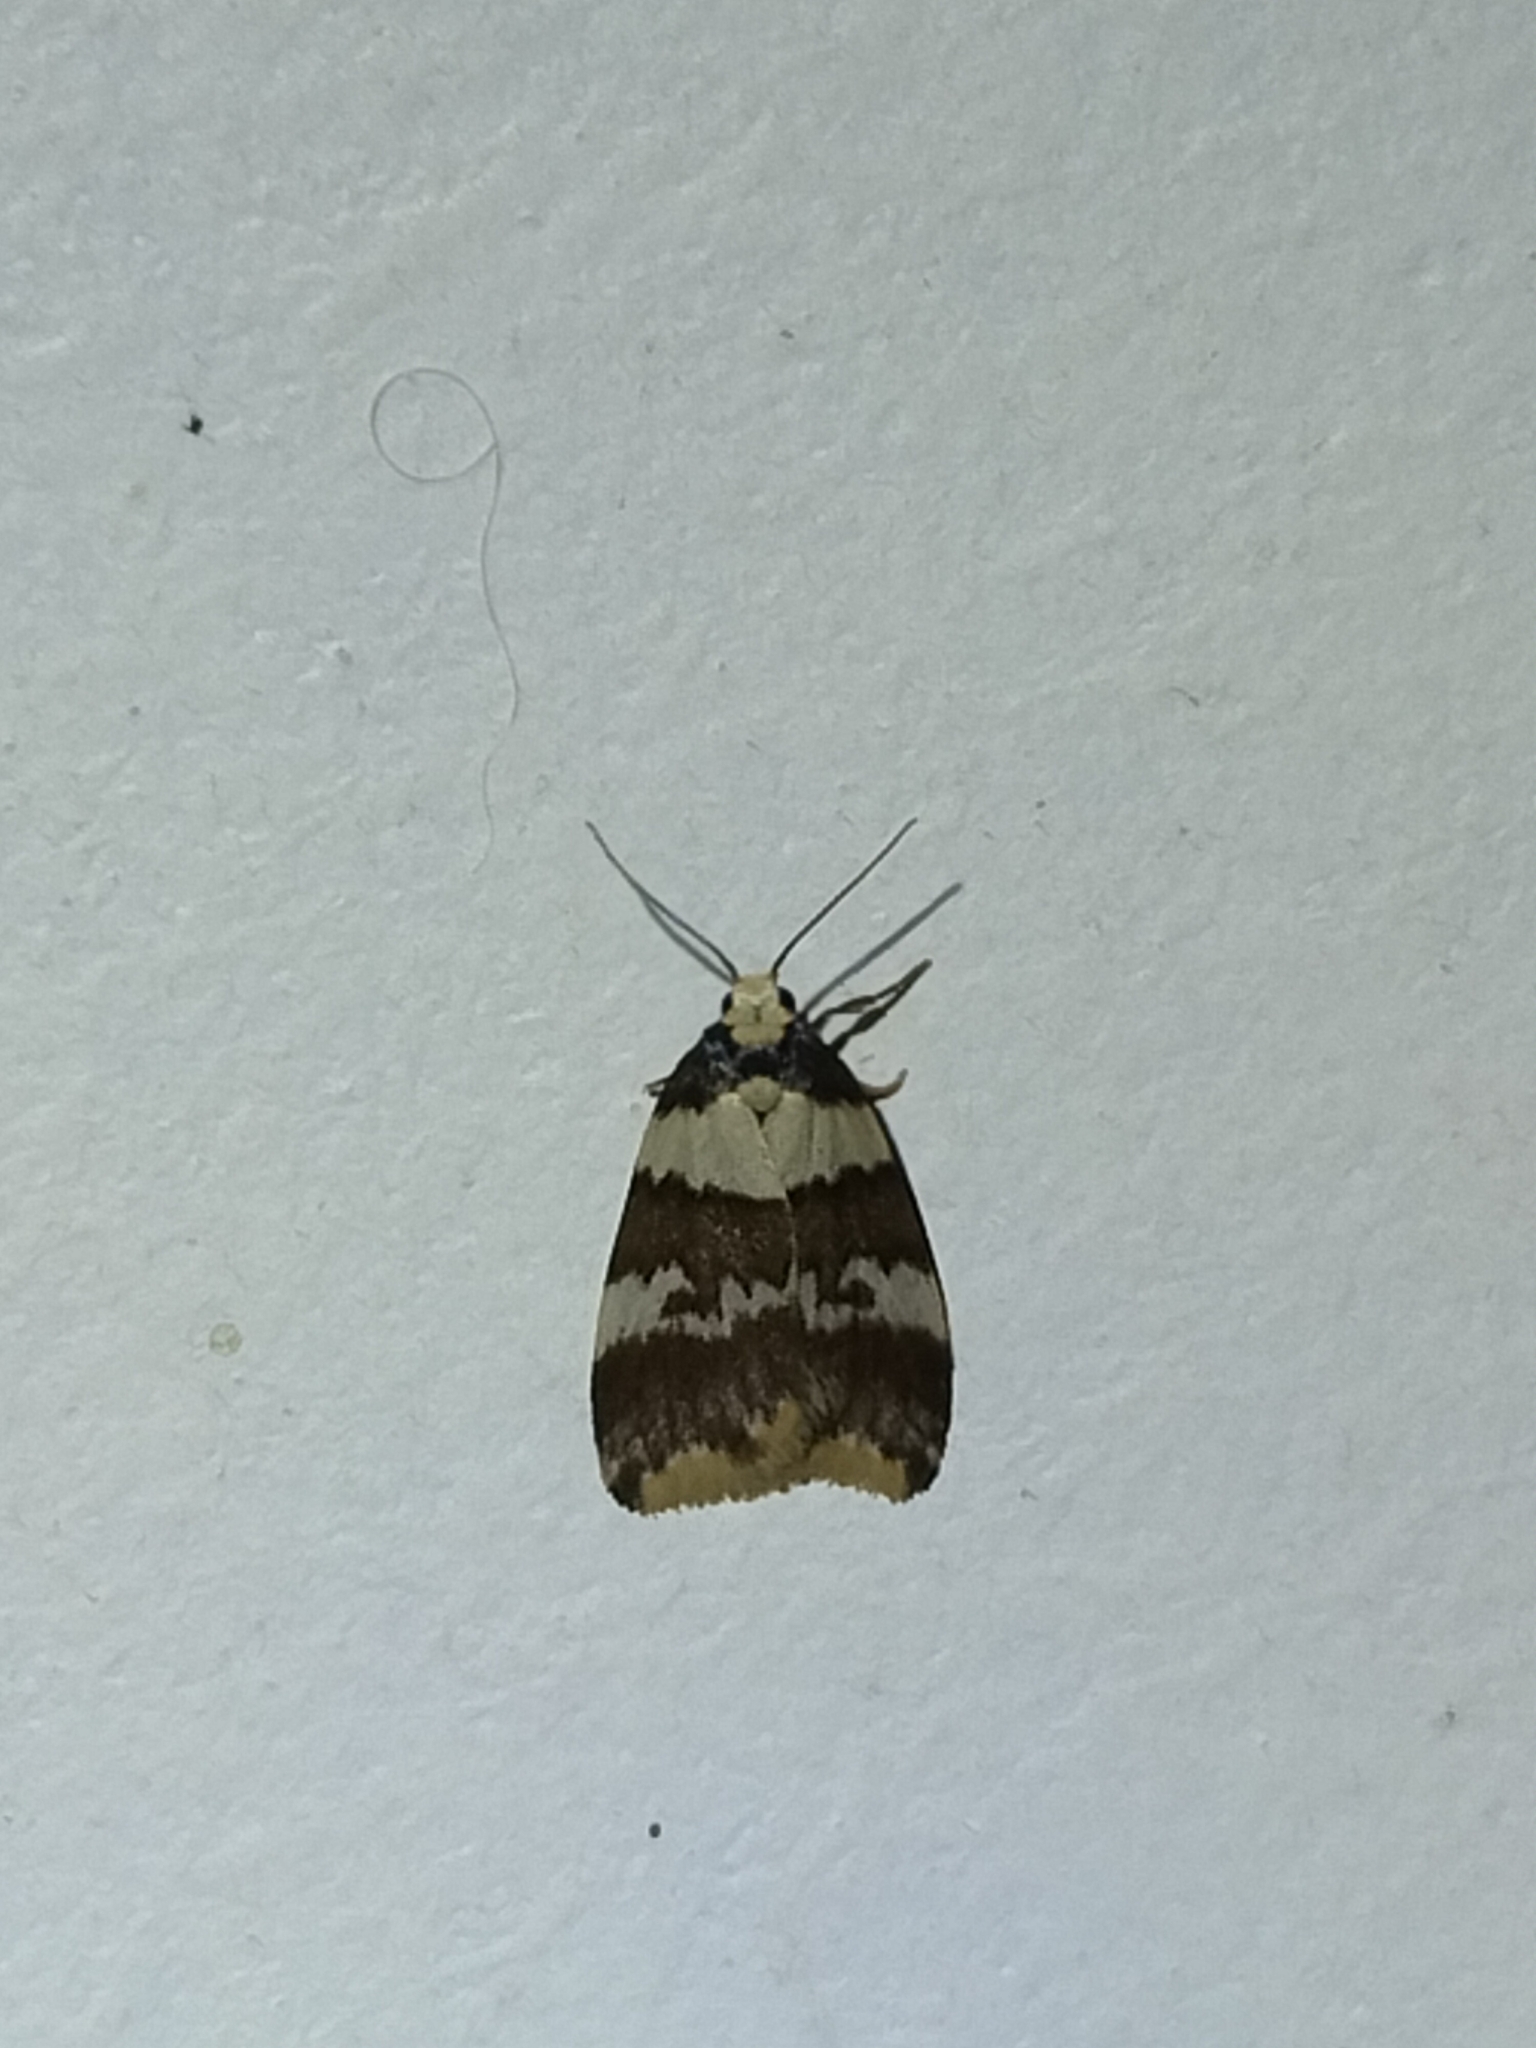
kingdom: Animalia
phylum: Arthropoda
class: Insecta
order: Lepidoptera
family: Erebidae
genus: Halone
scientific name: Halone sejuncta
